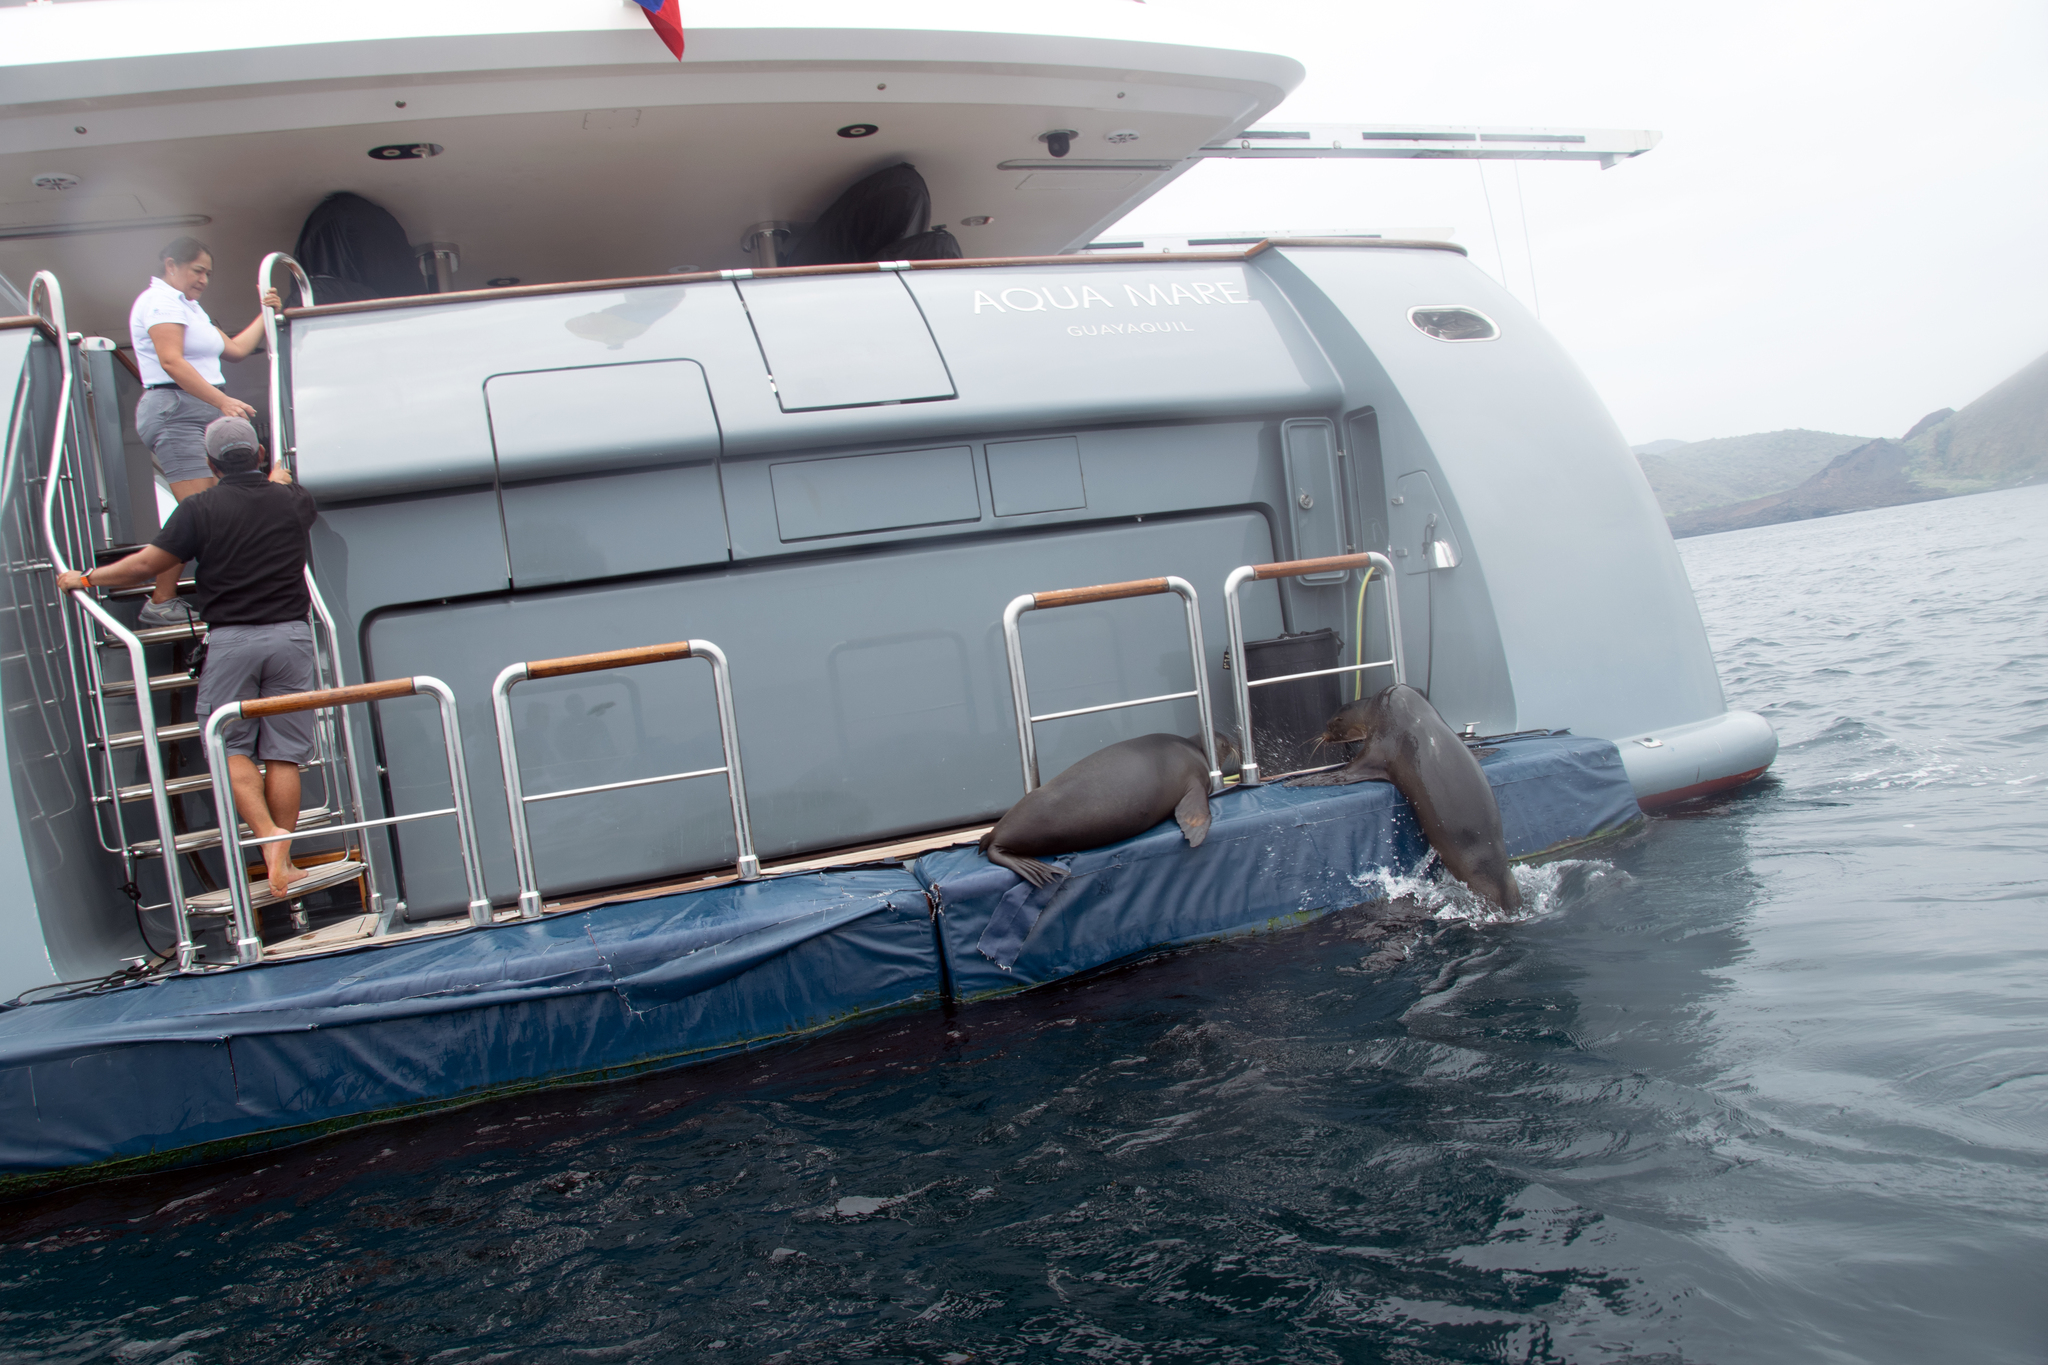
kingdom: Animalia
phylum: Chordata
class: Mammalia
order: Carnivora
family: Otariidae
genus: Zalophus
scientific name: Zalophus wollebaeki
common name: Galapagos sea lion
